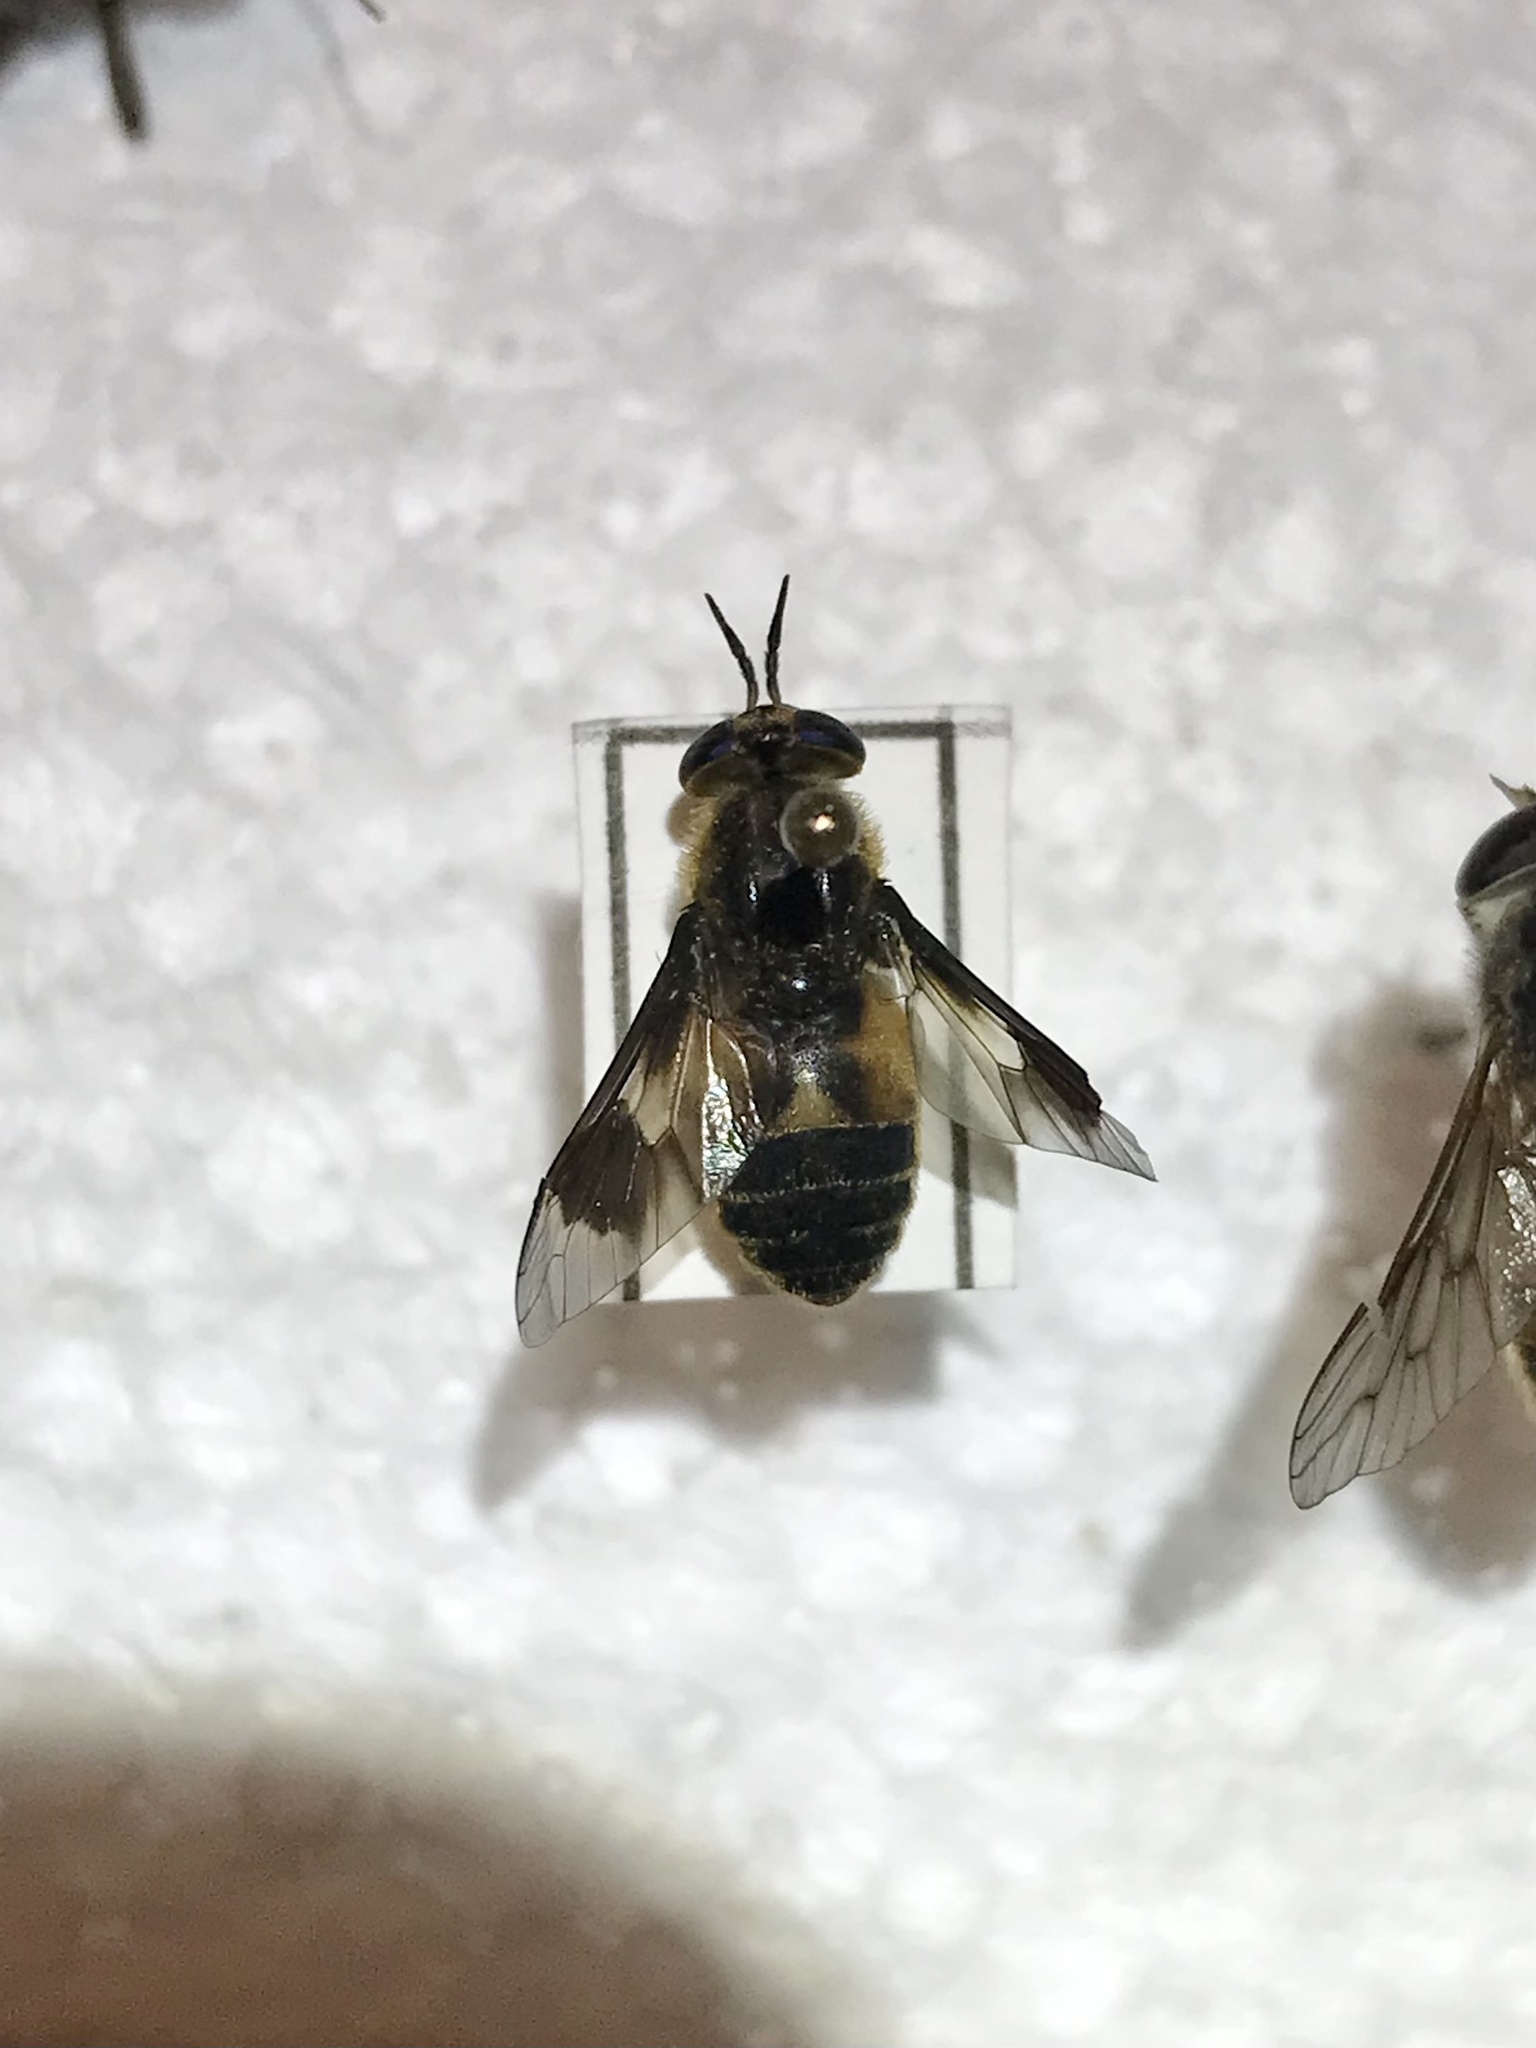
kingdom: Animalia
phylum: Arthropoda
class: Insecta
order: Diptera
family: Tabanidae
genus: Chrysops
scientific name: Chrysops excitans
